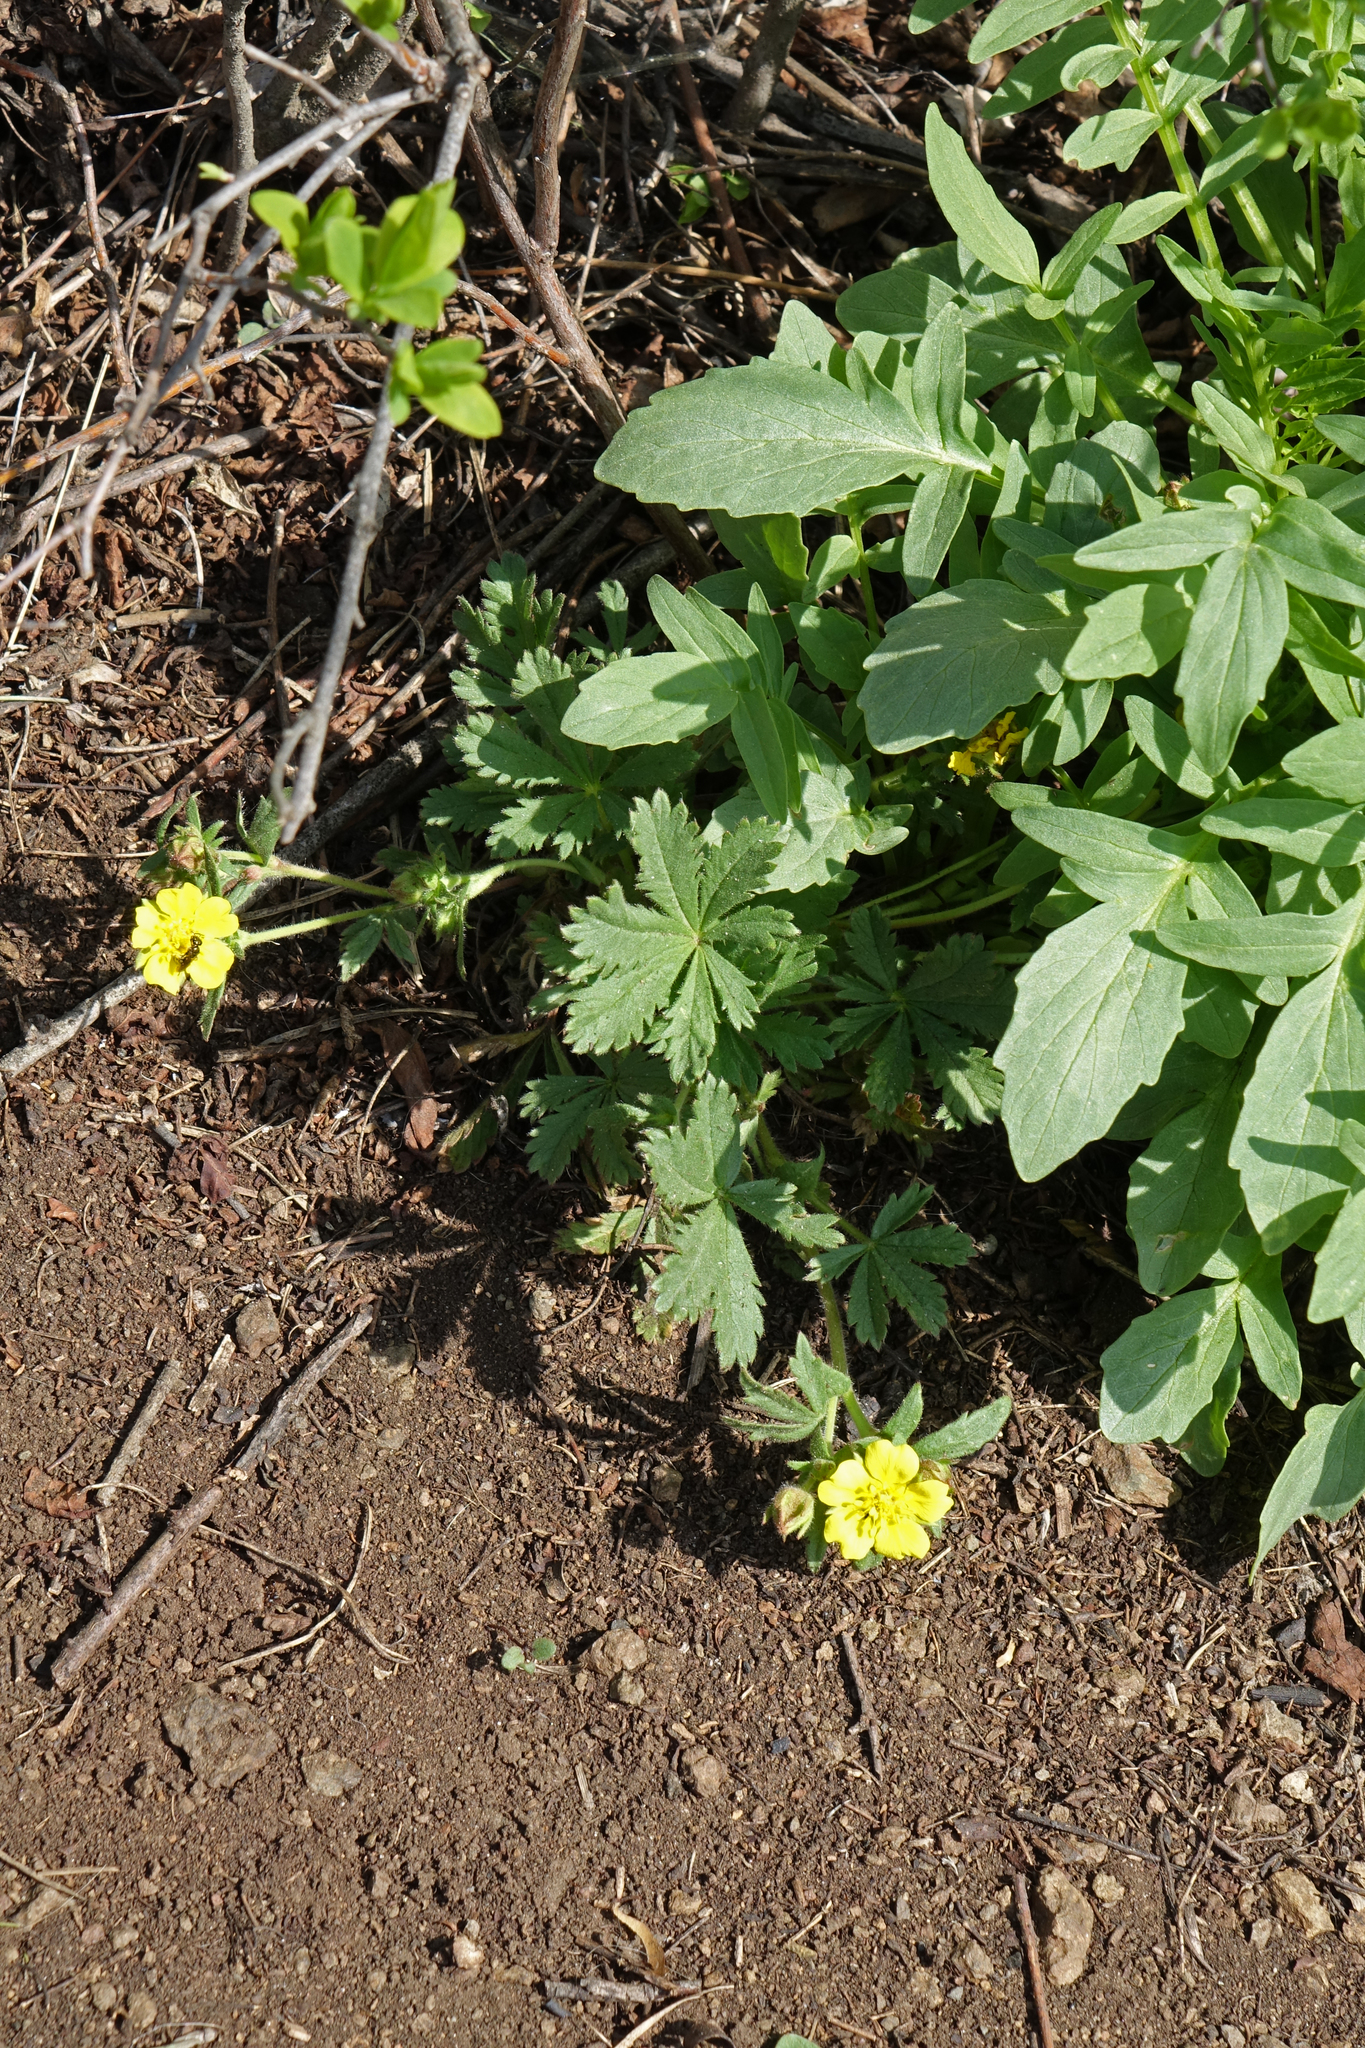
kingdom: Plantae
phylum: Tracheophyta
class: Magnoliopsida
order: Rosales
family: Rosaceae
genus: Potentilla
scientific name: Potentilla humifusa
